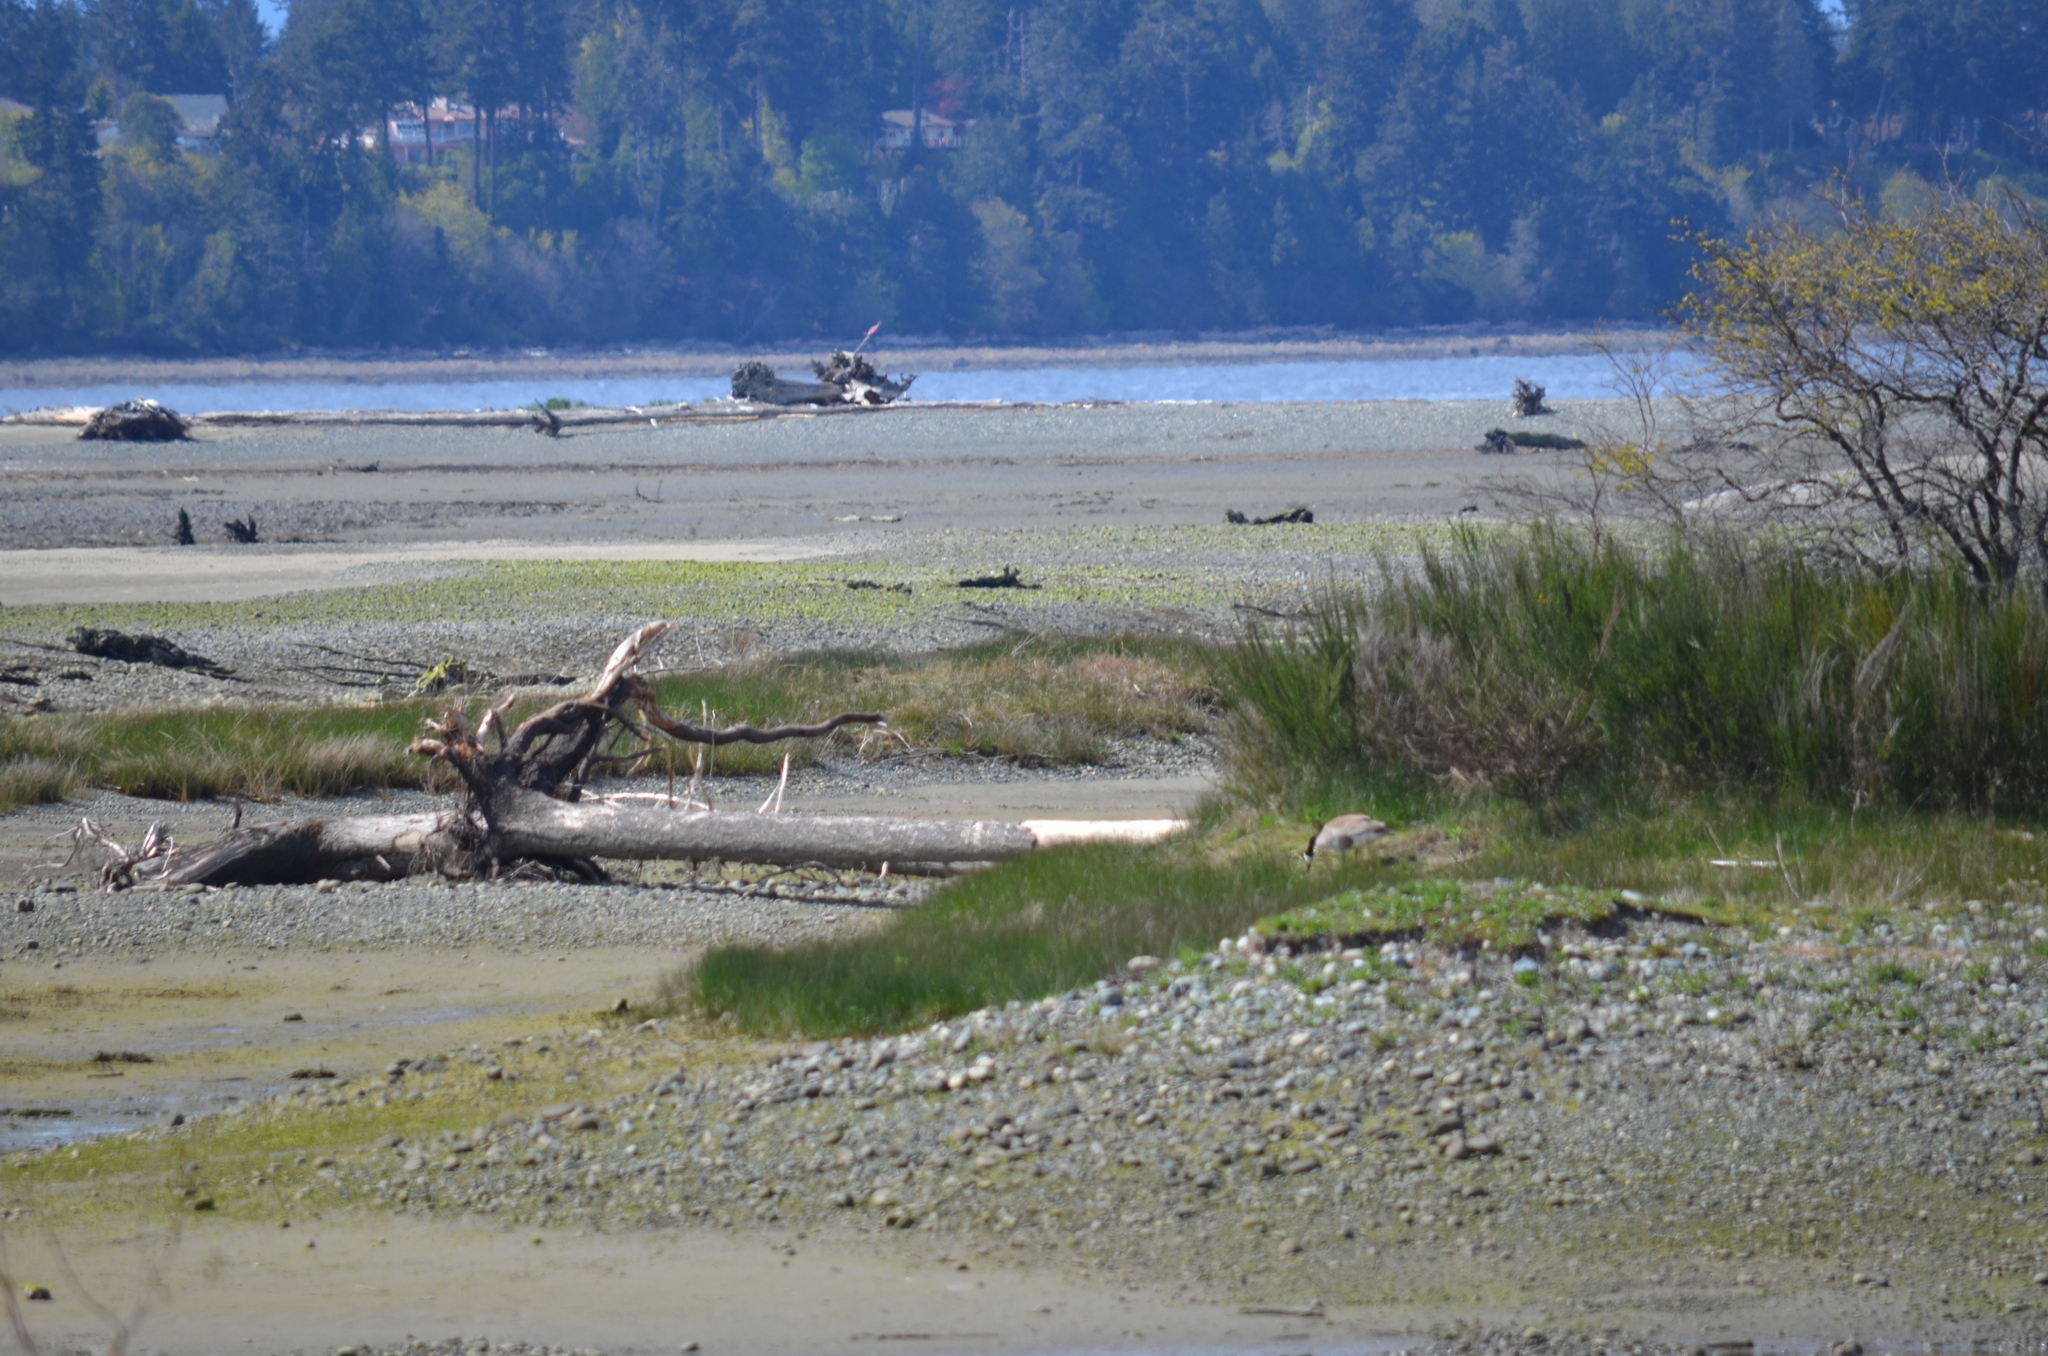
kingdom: Animalia
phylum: Chordata
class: Aves
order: Anseriformes
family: Anatidae
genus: Branta
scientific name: Branta canadensis
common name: Canada goose
